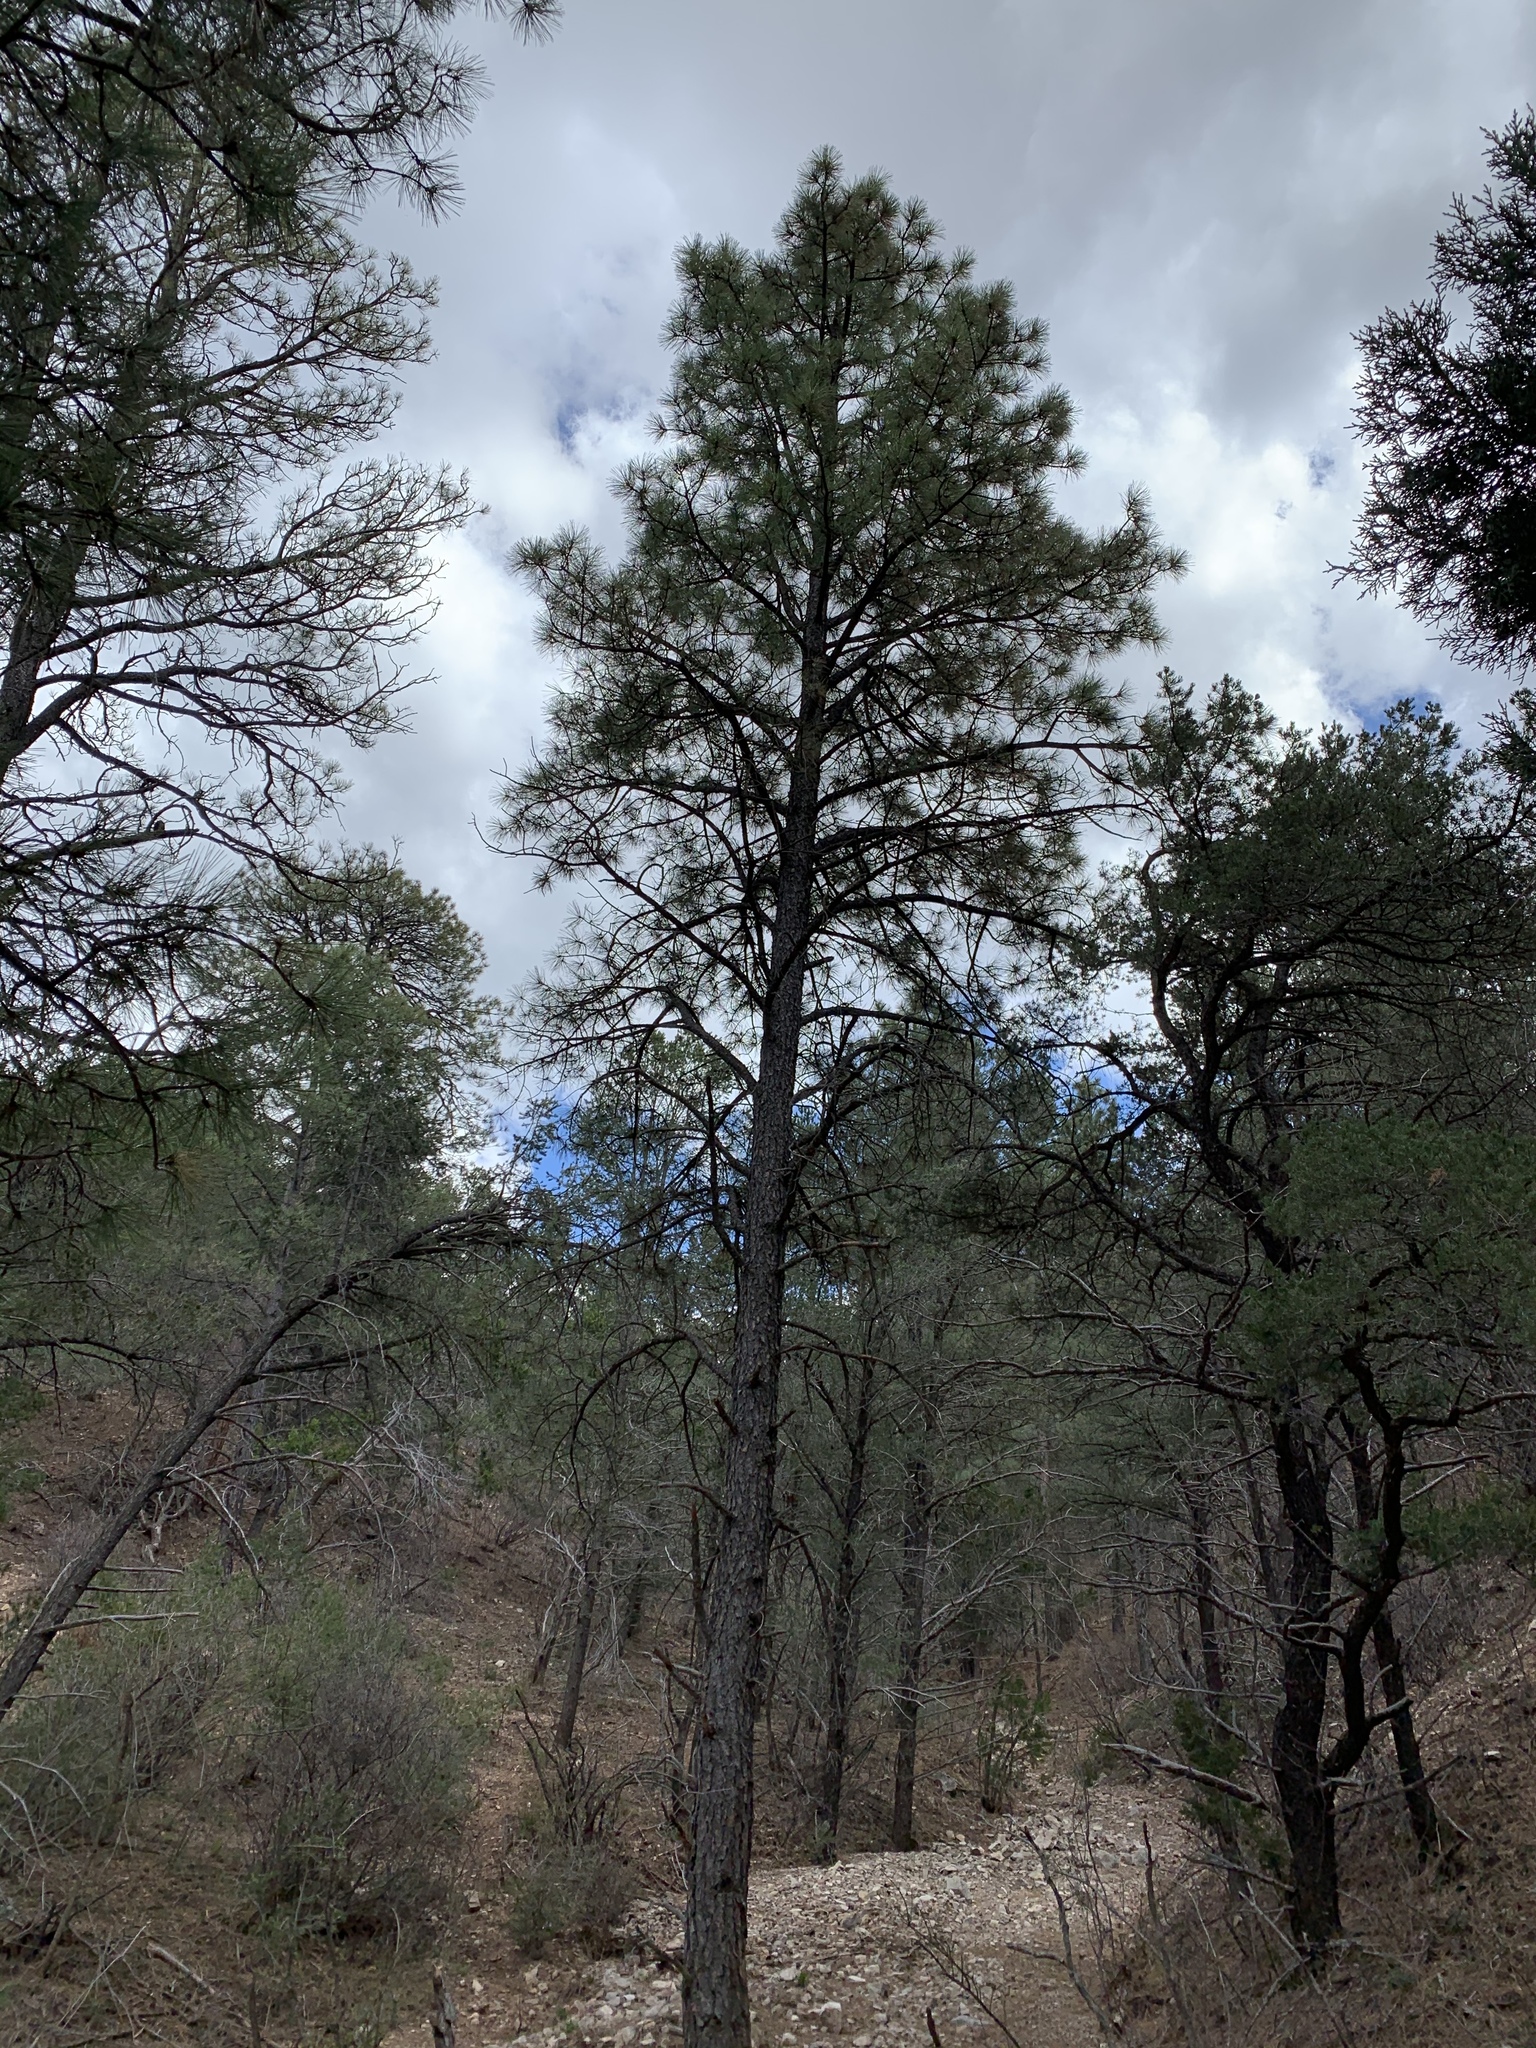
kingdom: Plantae
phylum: Tracheophyta
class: Pinopsida
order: Pinales
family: Pinaceae
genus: Pinus
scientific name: Pinus ponderosa
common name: Western yellow-pine
